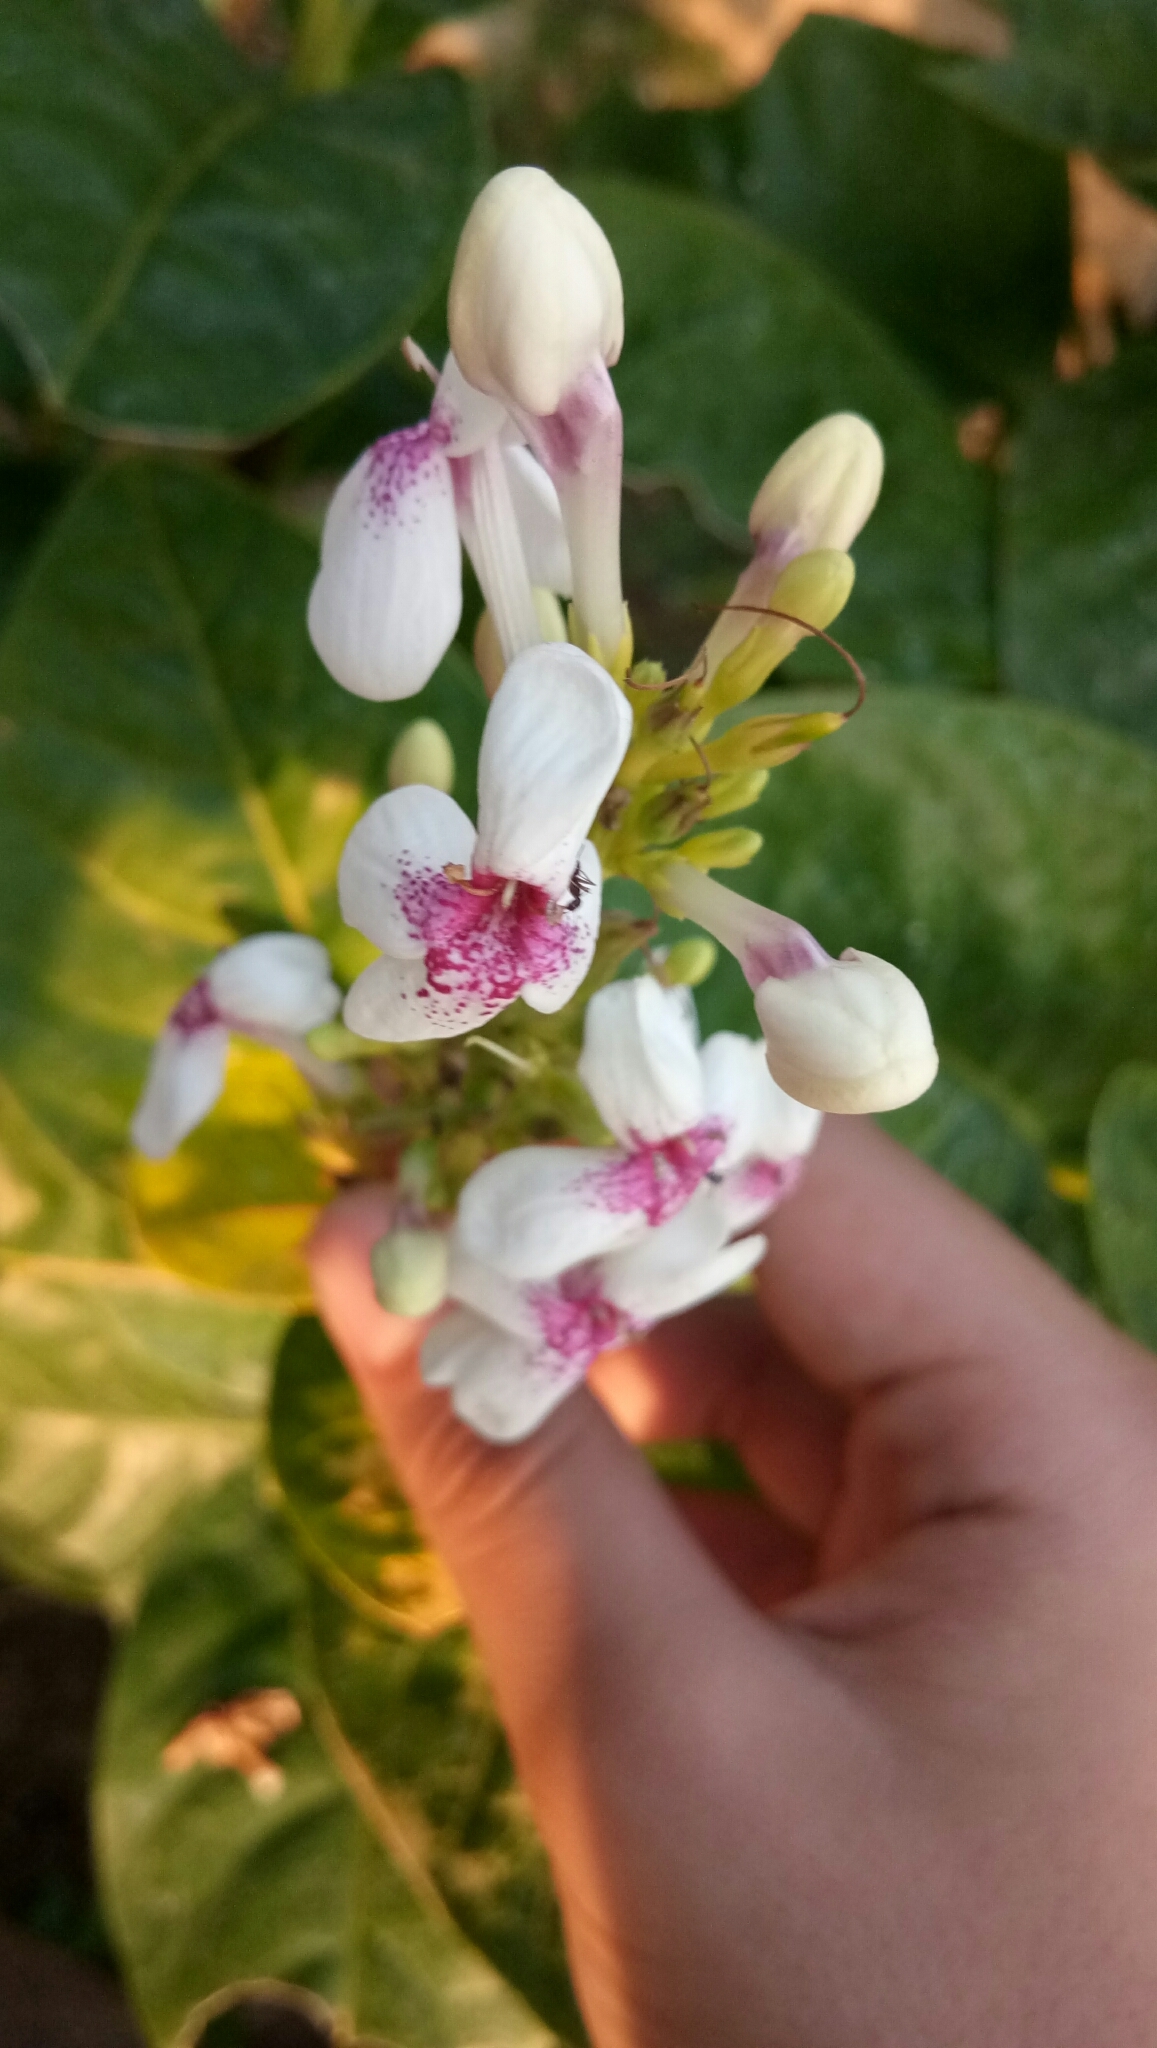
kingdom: Plantae
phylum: Tracheophyta
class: Magnoliopsida
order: Lamiales
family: Acanthaceae
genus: Pseuderanthemum
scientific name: Pseuderanthemum maculatum
